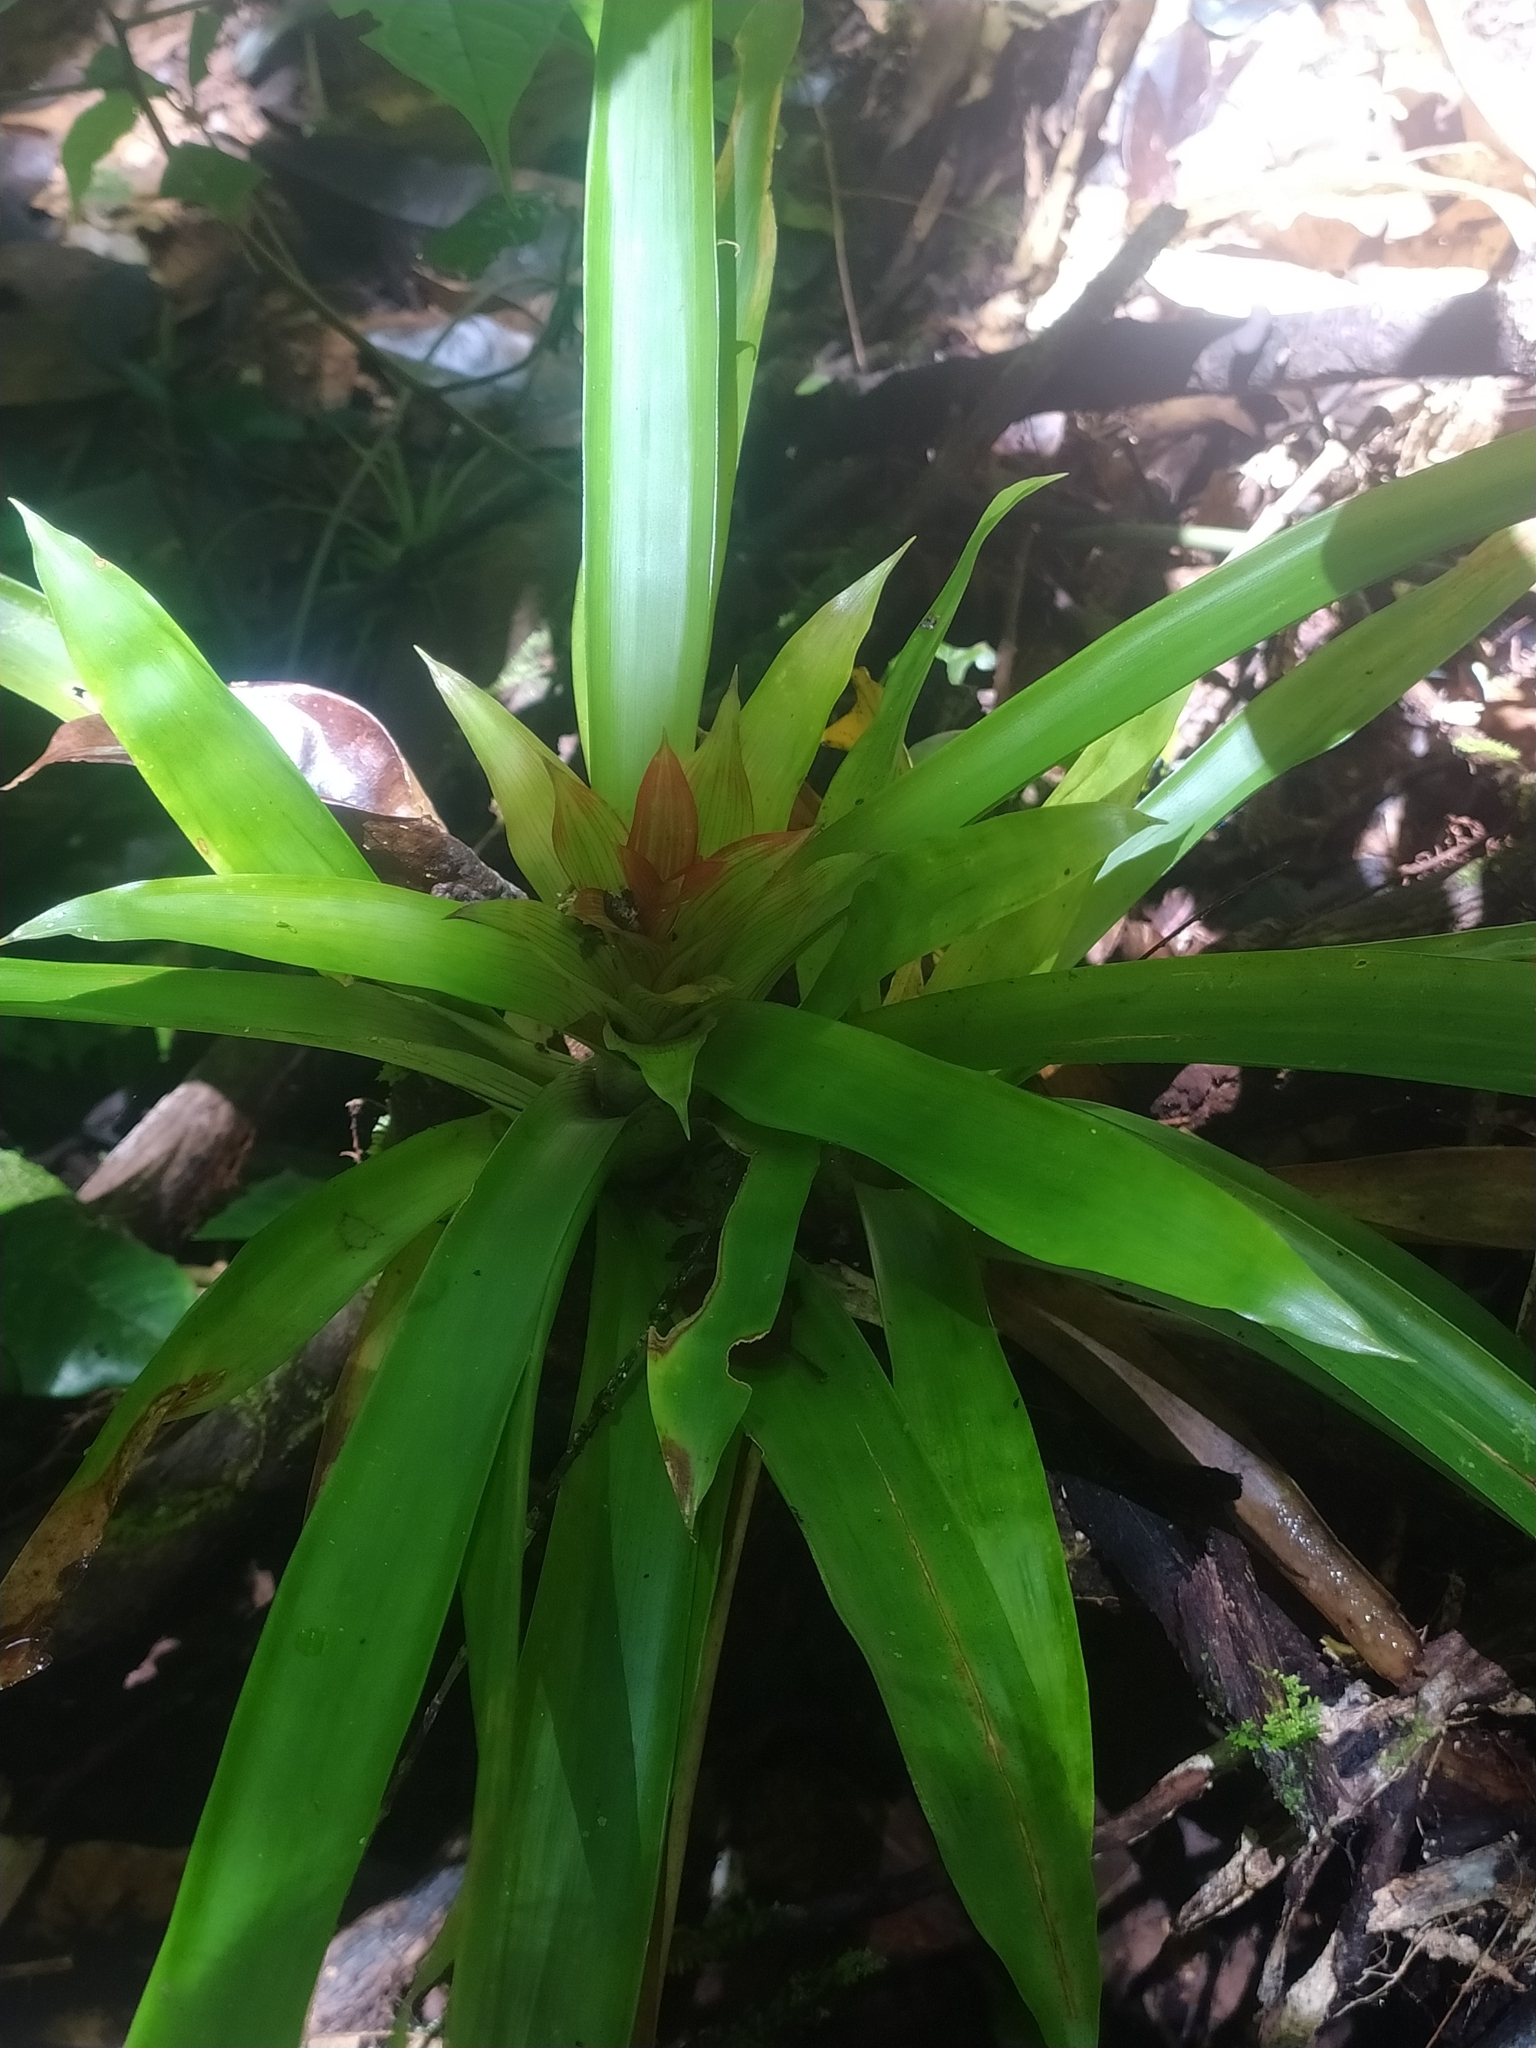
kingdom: Plantae
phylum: Tracheophyta
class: Liliopsida
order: Poales
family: Bromeliaceae
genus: Guzmania
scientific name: Guzmania lingulata
